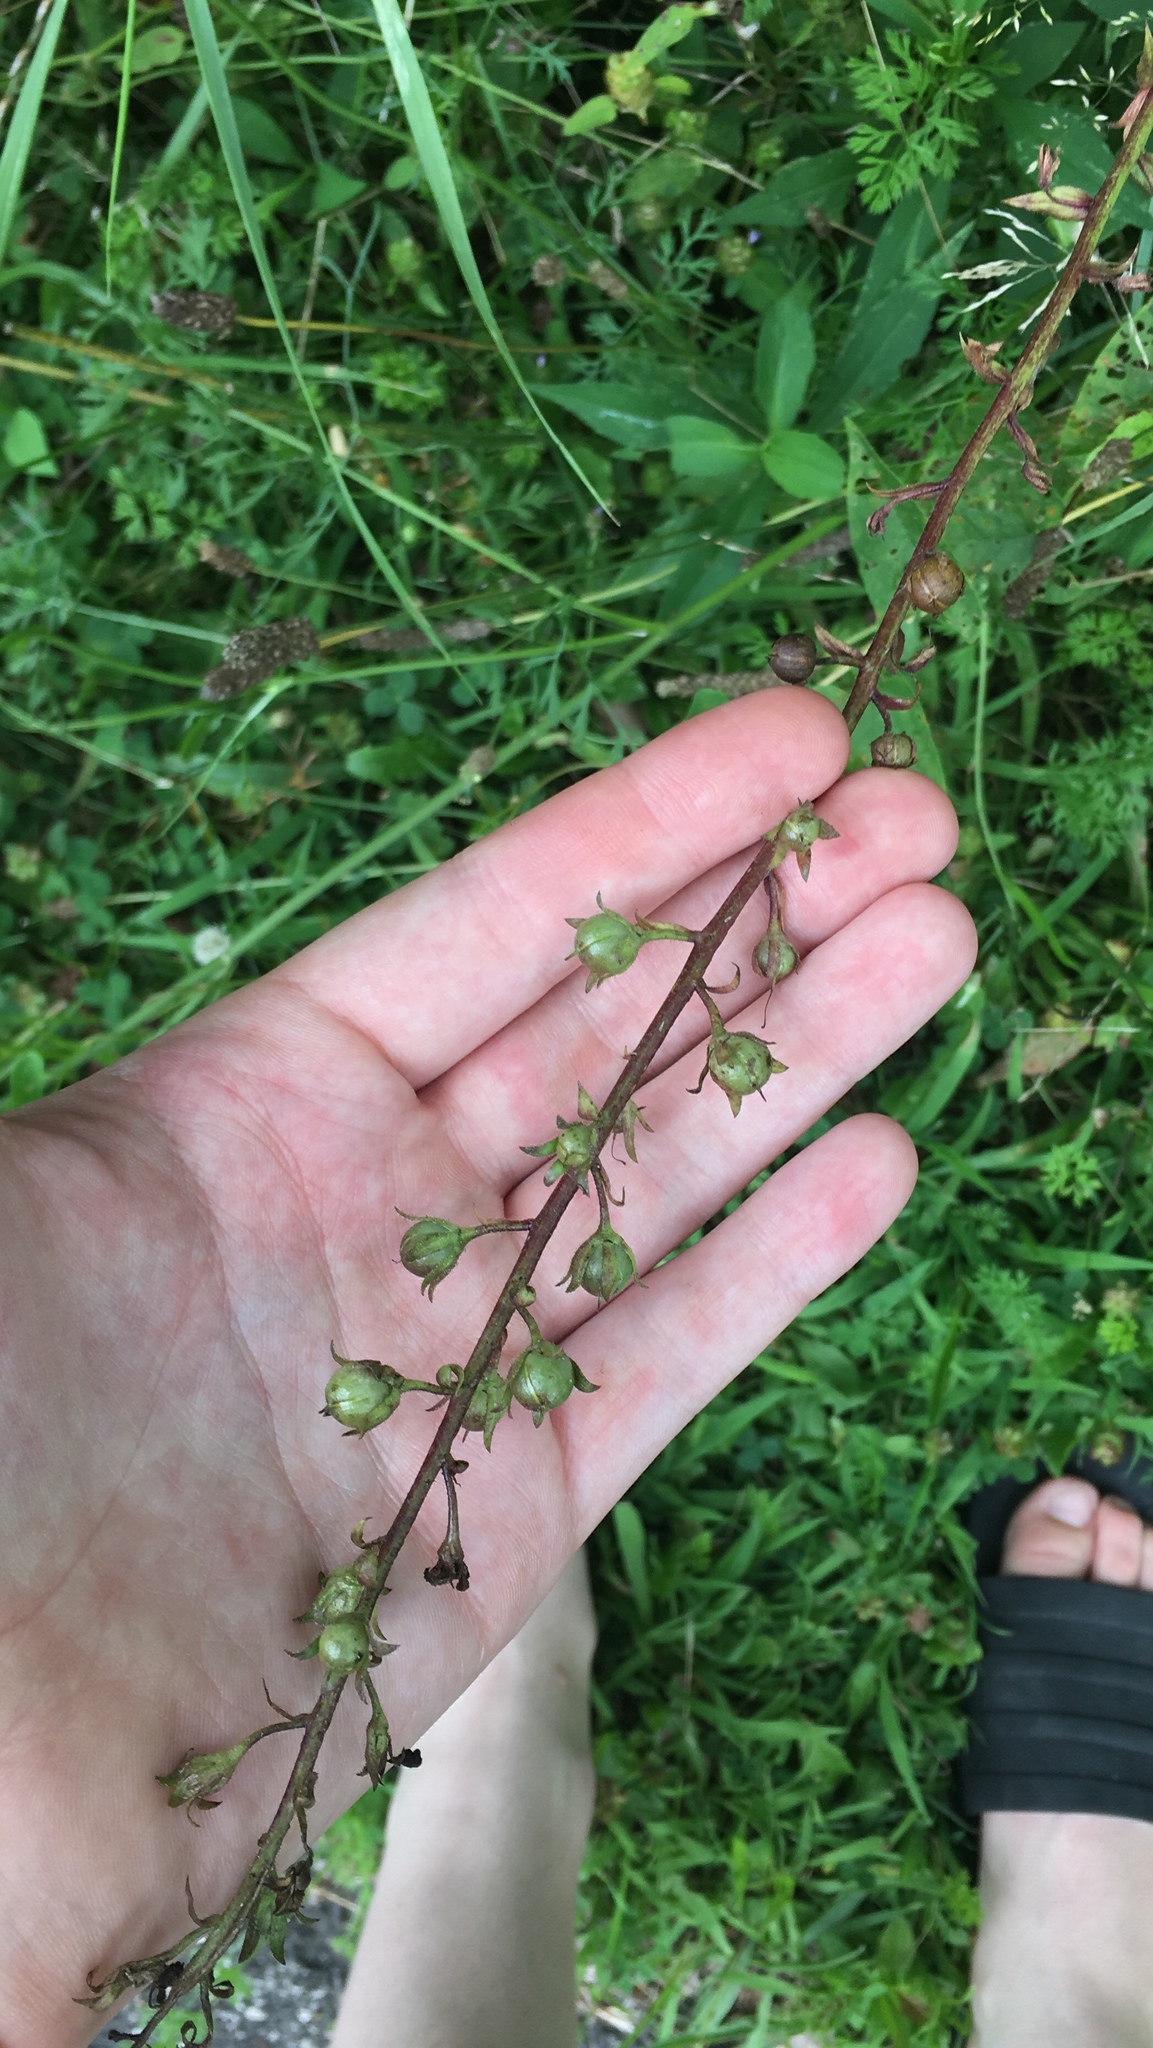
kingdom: Plantae
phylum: Tracheophyta
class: Magnoliopsida
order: Lamiales
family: Scrophulariaceae
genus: Verbascum
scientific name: Verbascum blattaria
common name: Moth mullein
